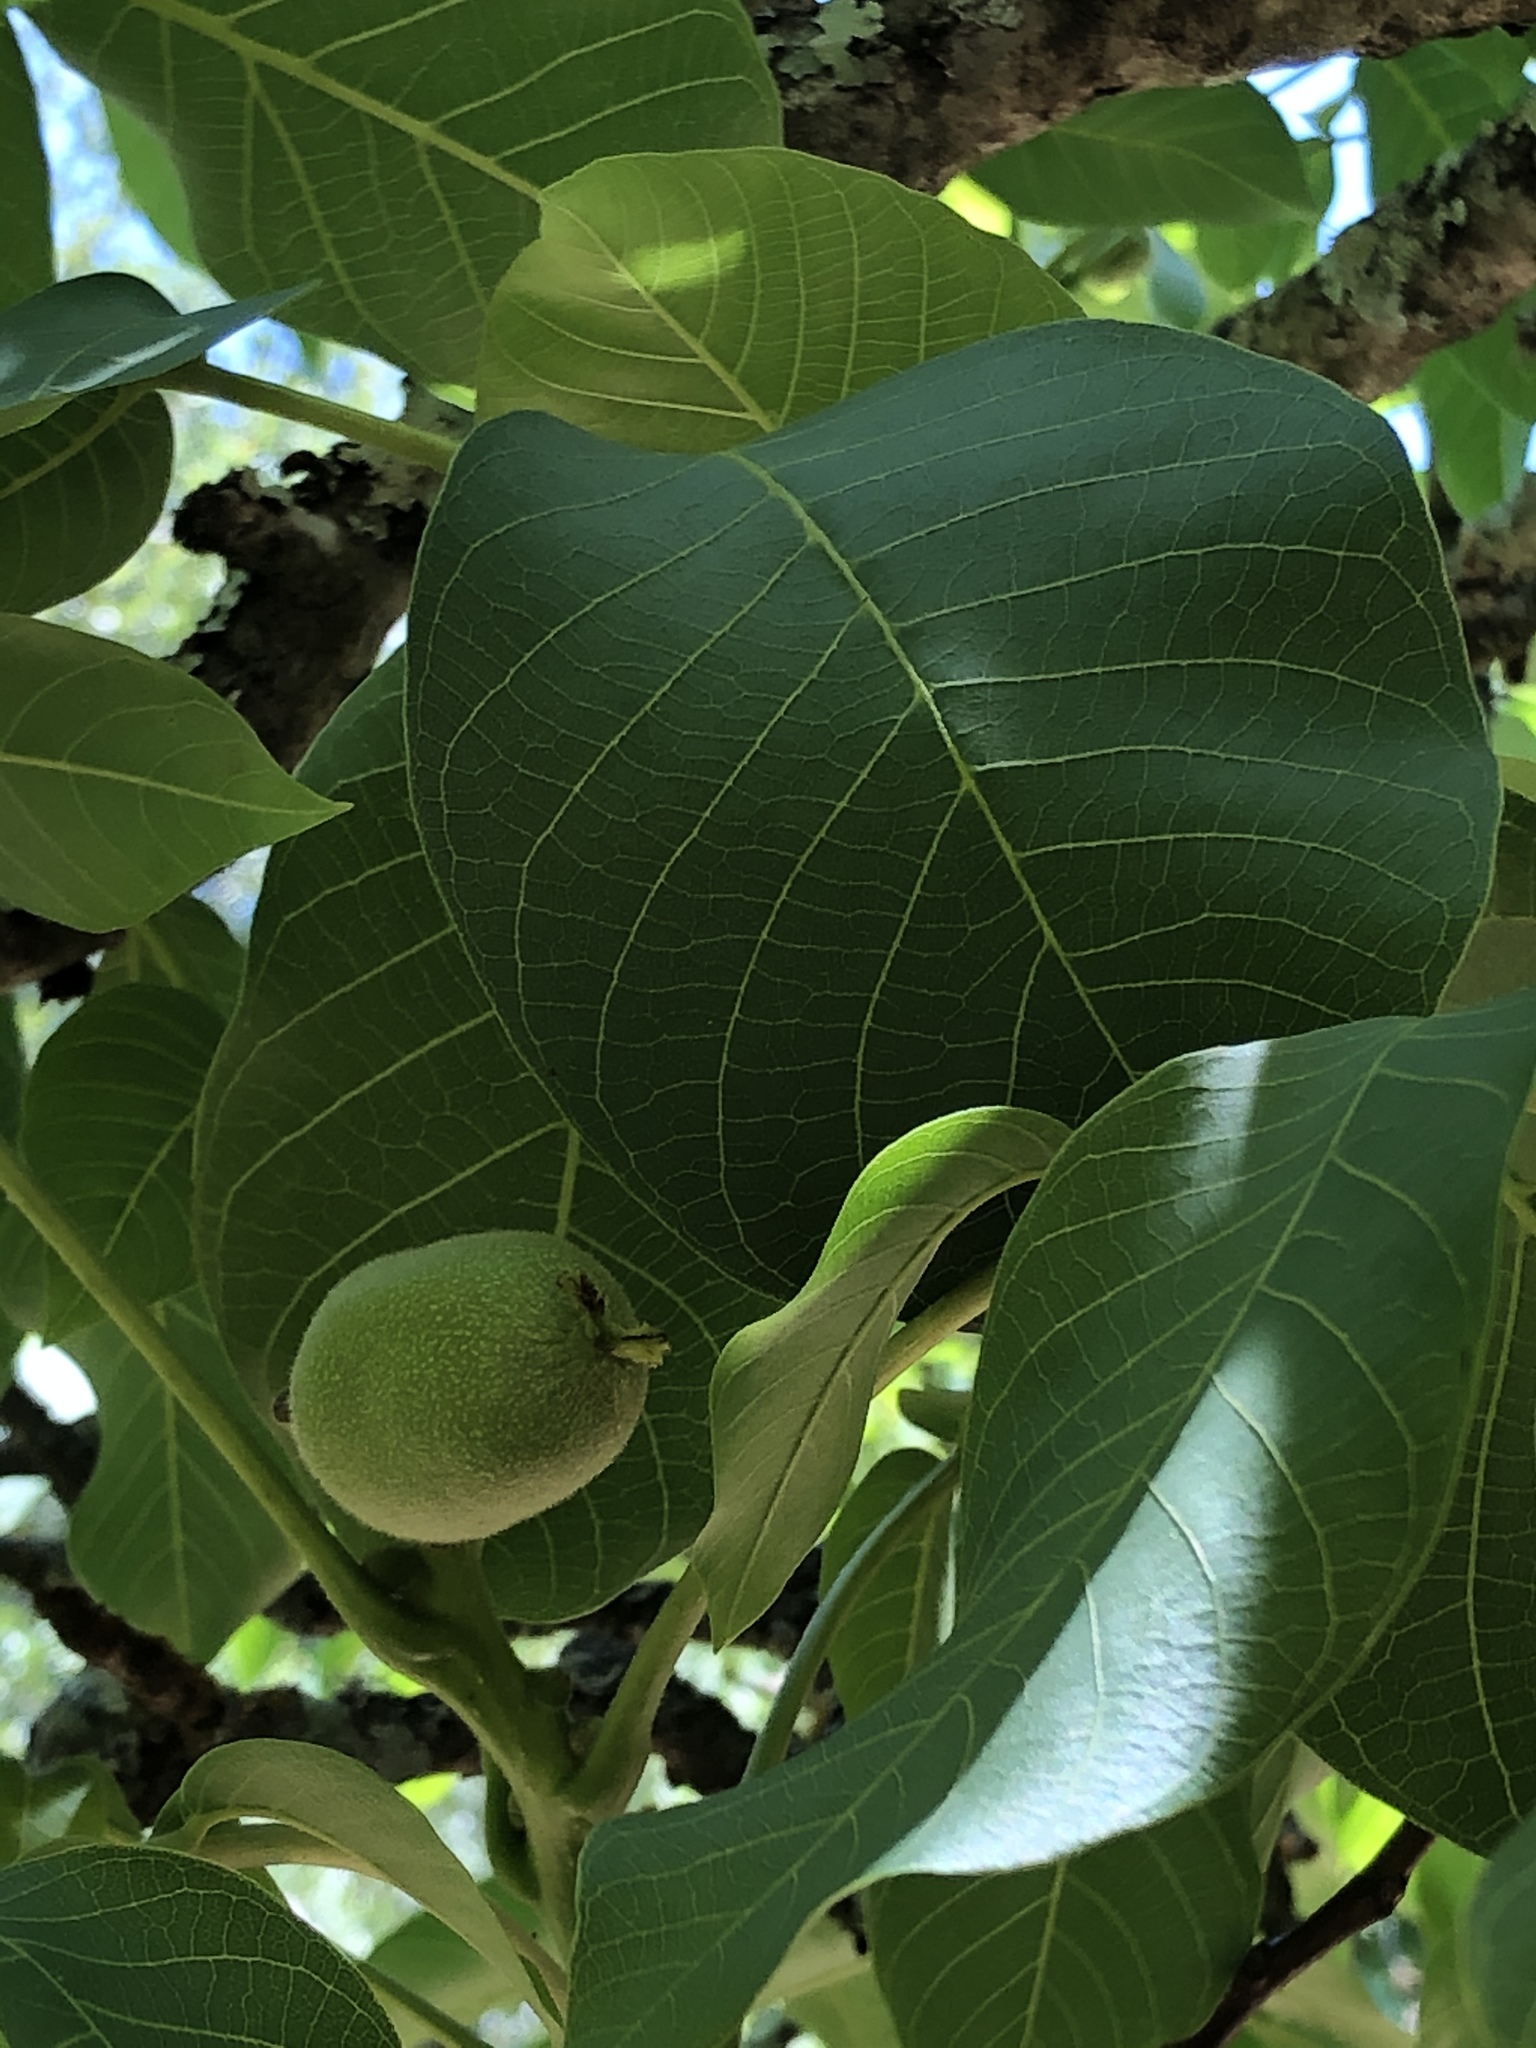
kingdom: Plantae
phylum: Tracheophyta
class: Magnoliopsida
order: Fagales
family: Juglandaceae
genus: Juglans
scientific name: Juglans regia
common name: Walnut
